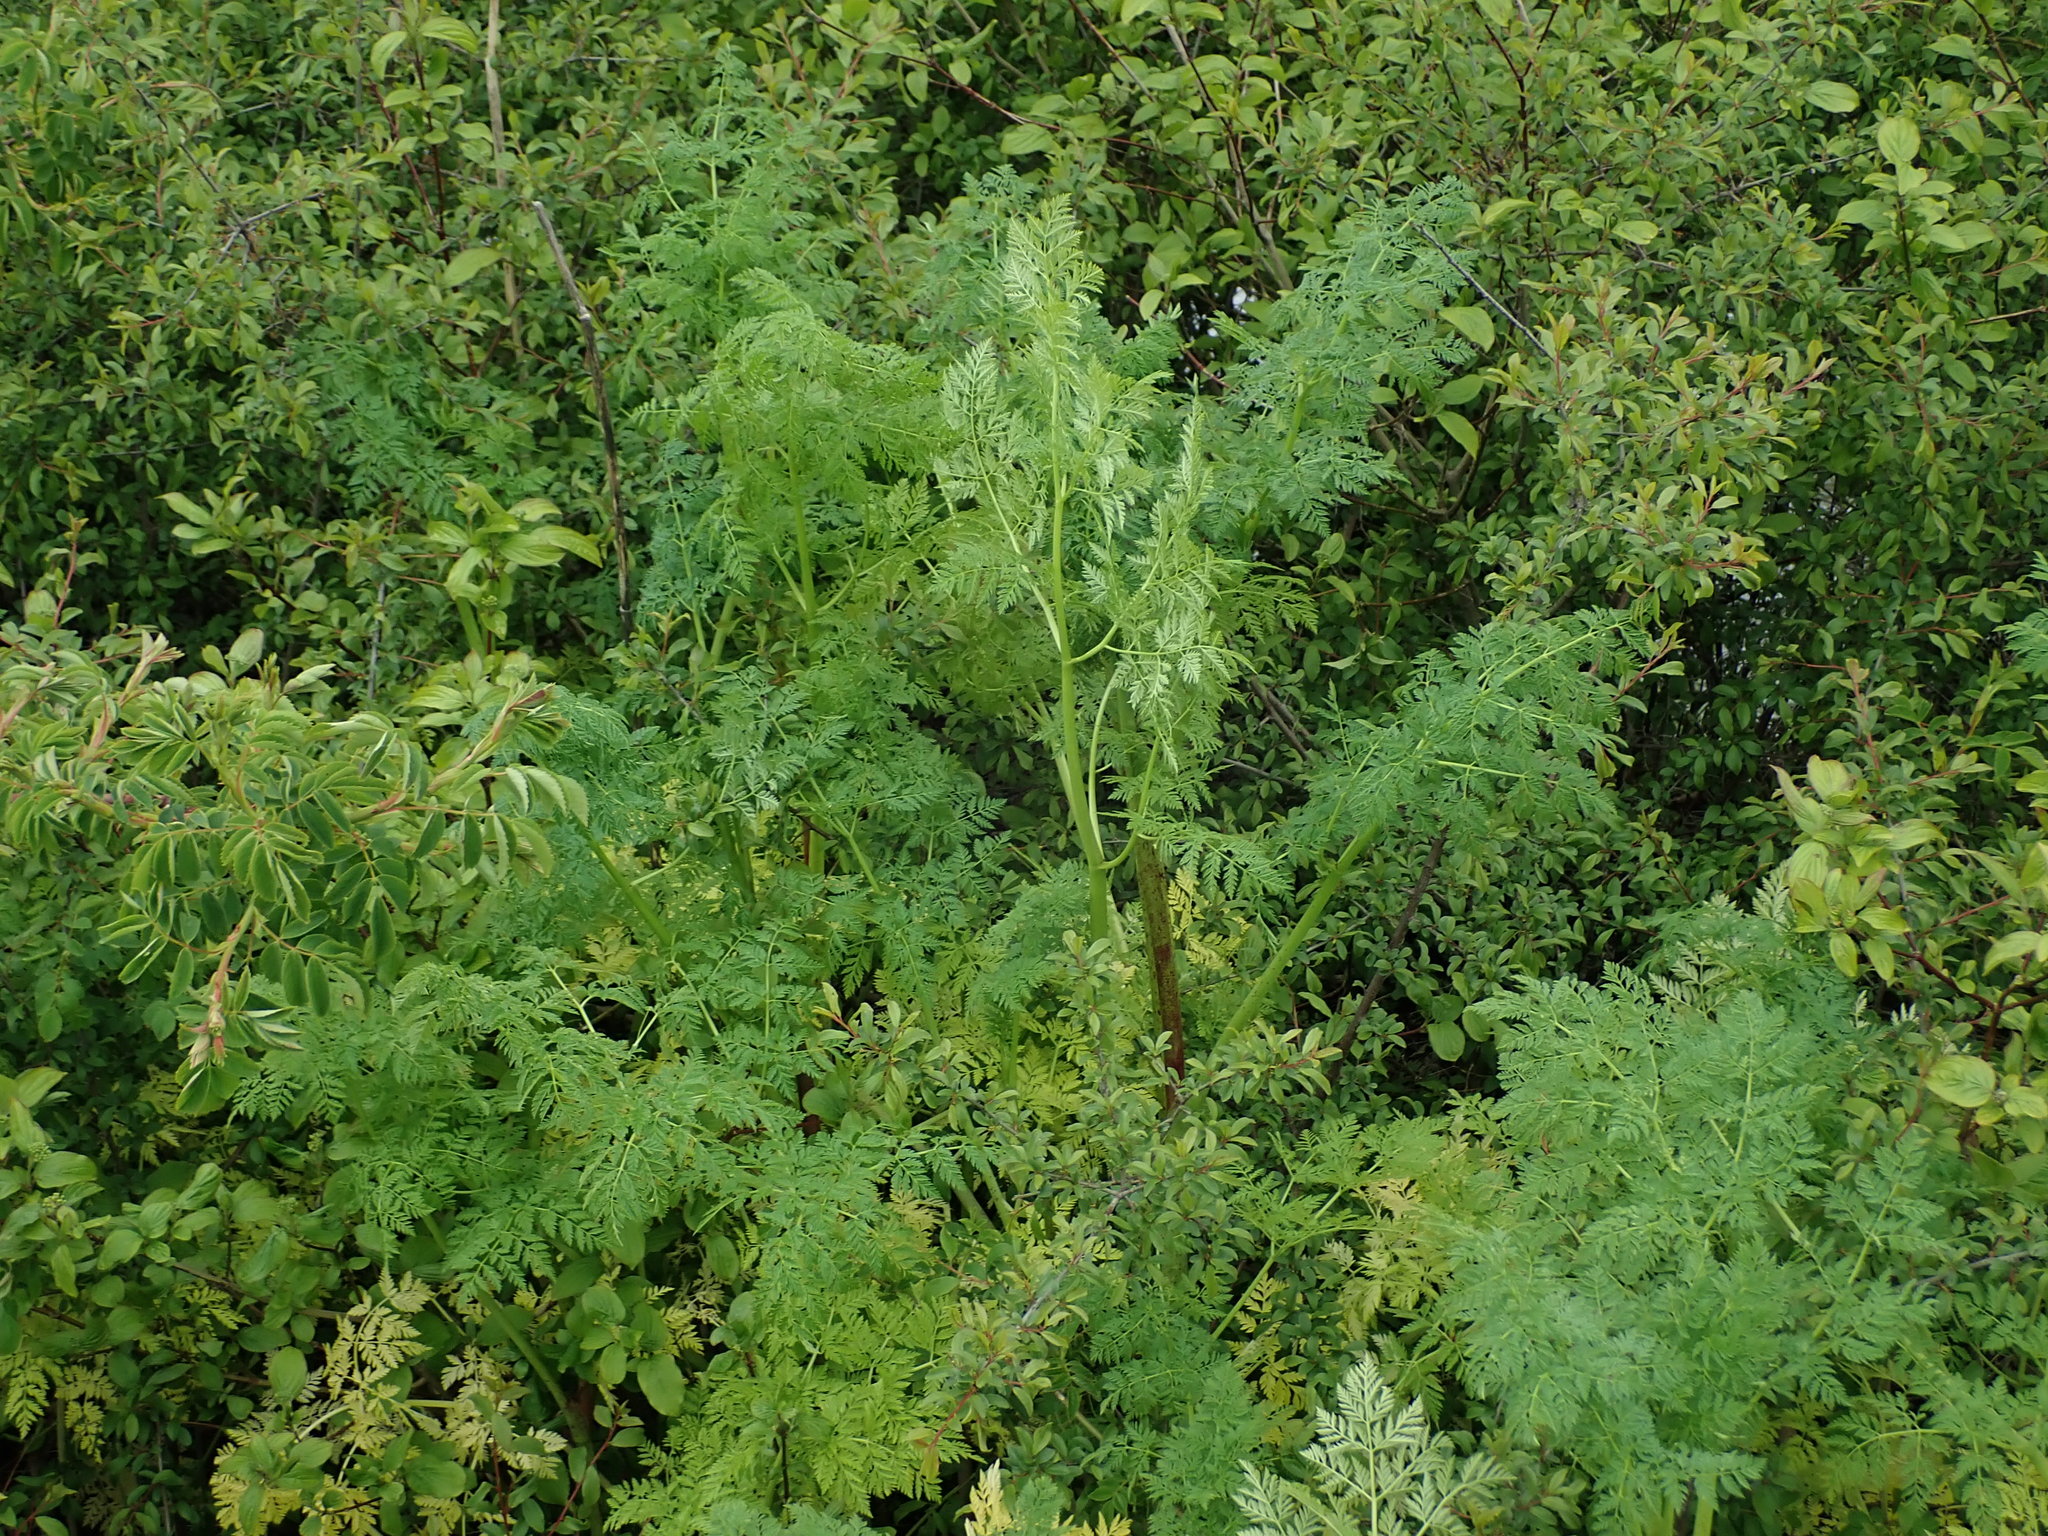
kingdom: Plantae
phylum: Tracheophyta
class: Magnoliopsida
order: Apiales
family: Apiaceae
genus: Conium
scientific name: Conium maculatum
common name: Hemlock
